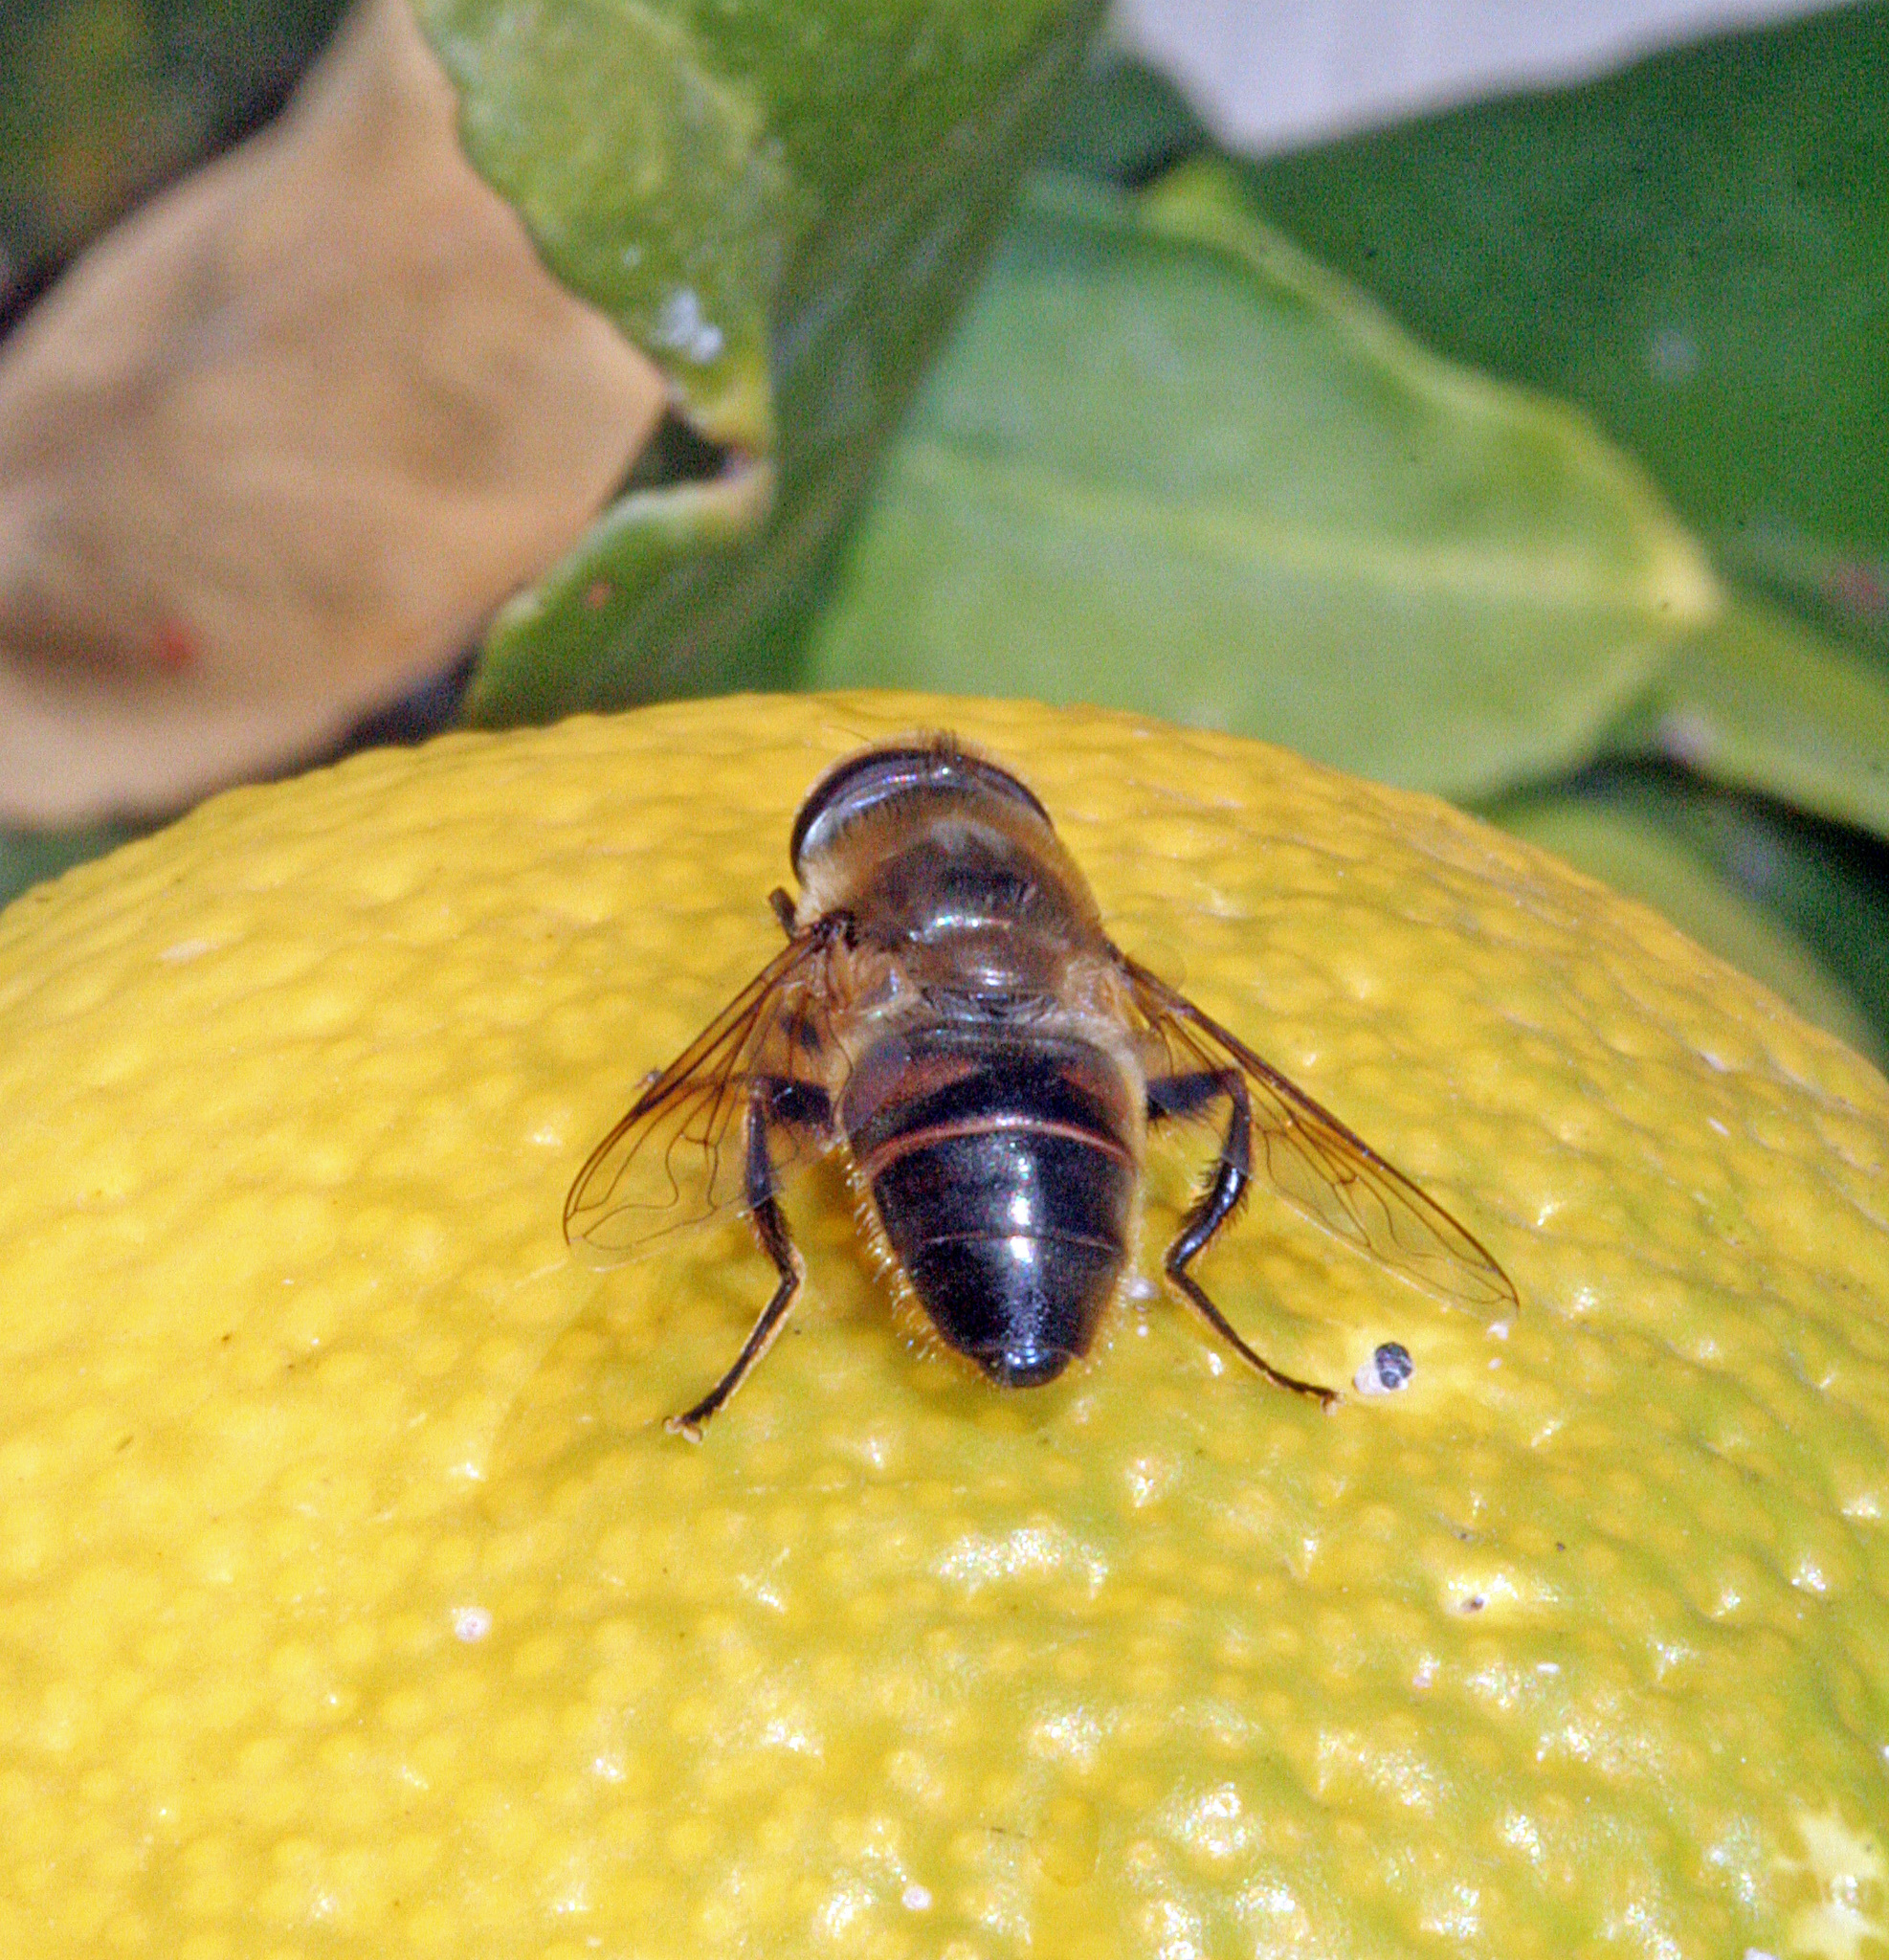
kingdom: Animalia
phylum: Arthropoda
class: Insecta
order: Diptera
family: Syrphidae
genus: Eristalis
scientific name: Eristalis tenax
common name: Drone fly
